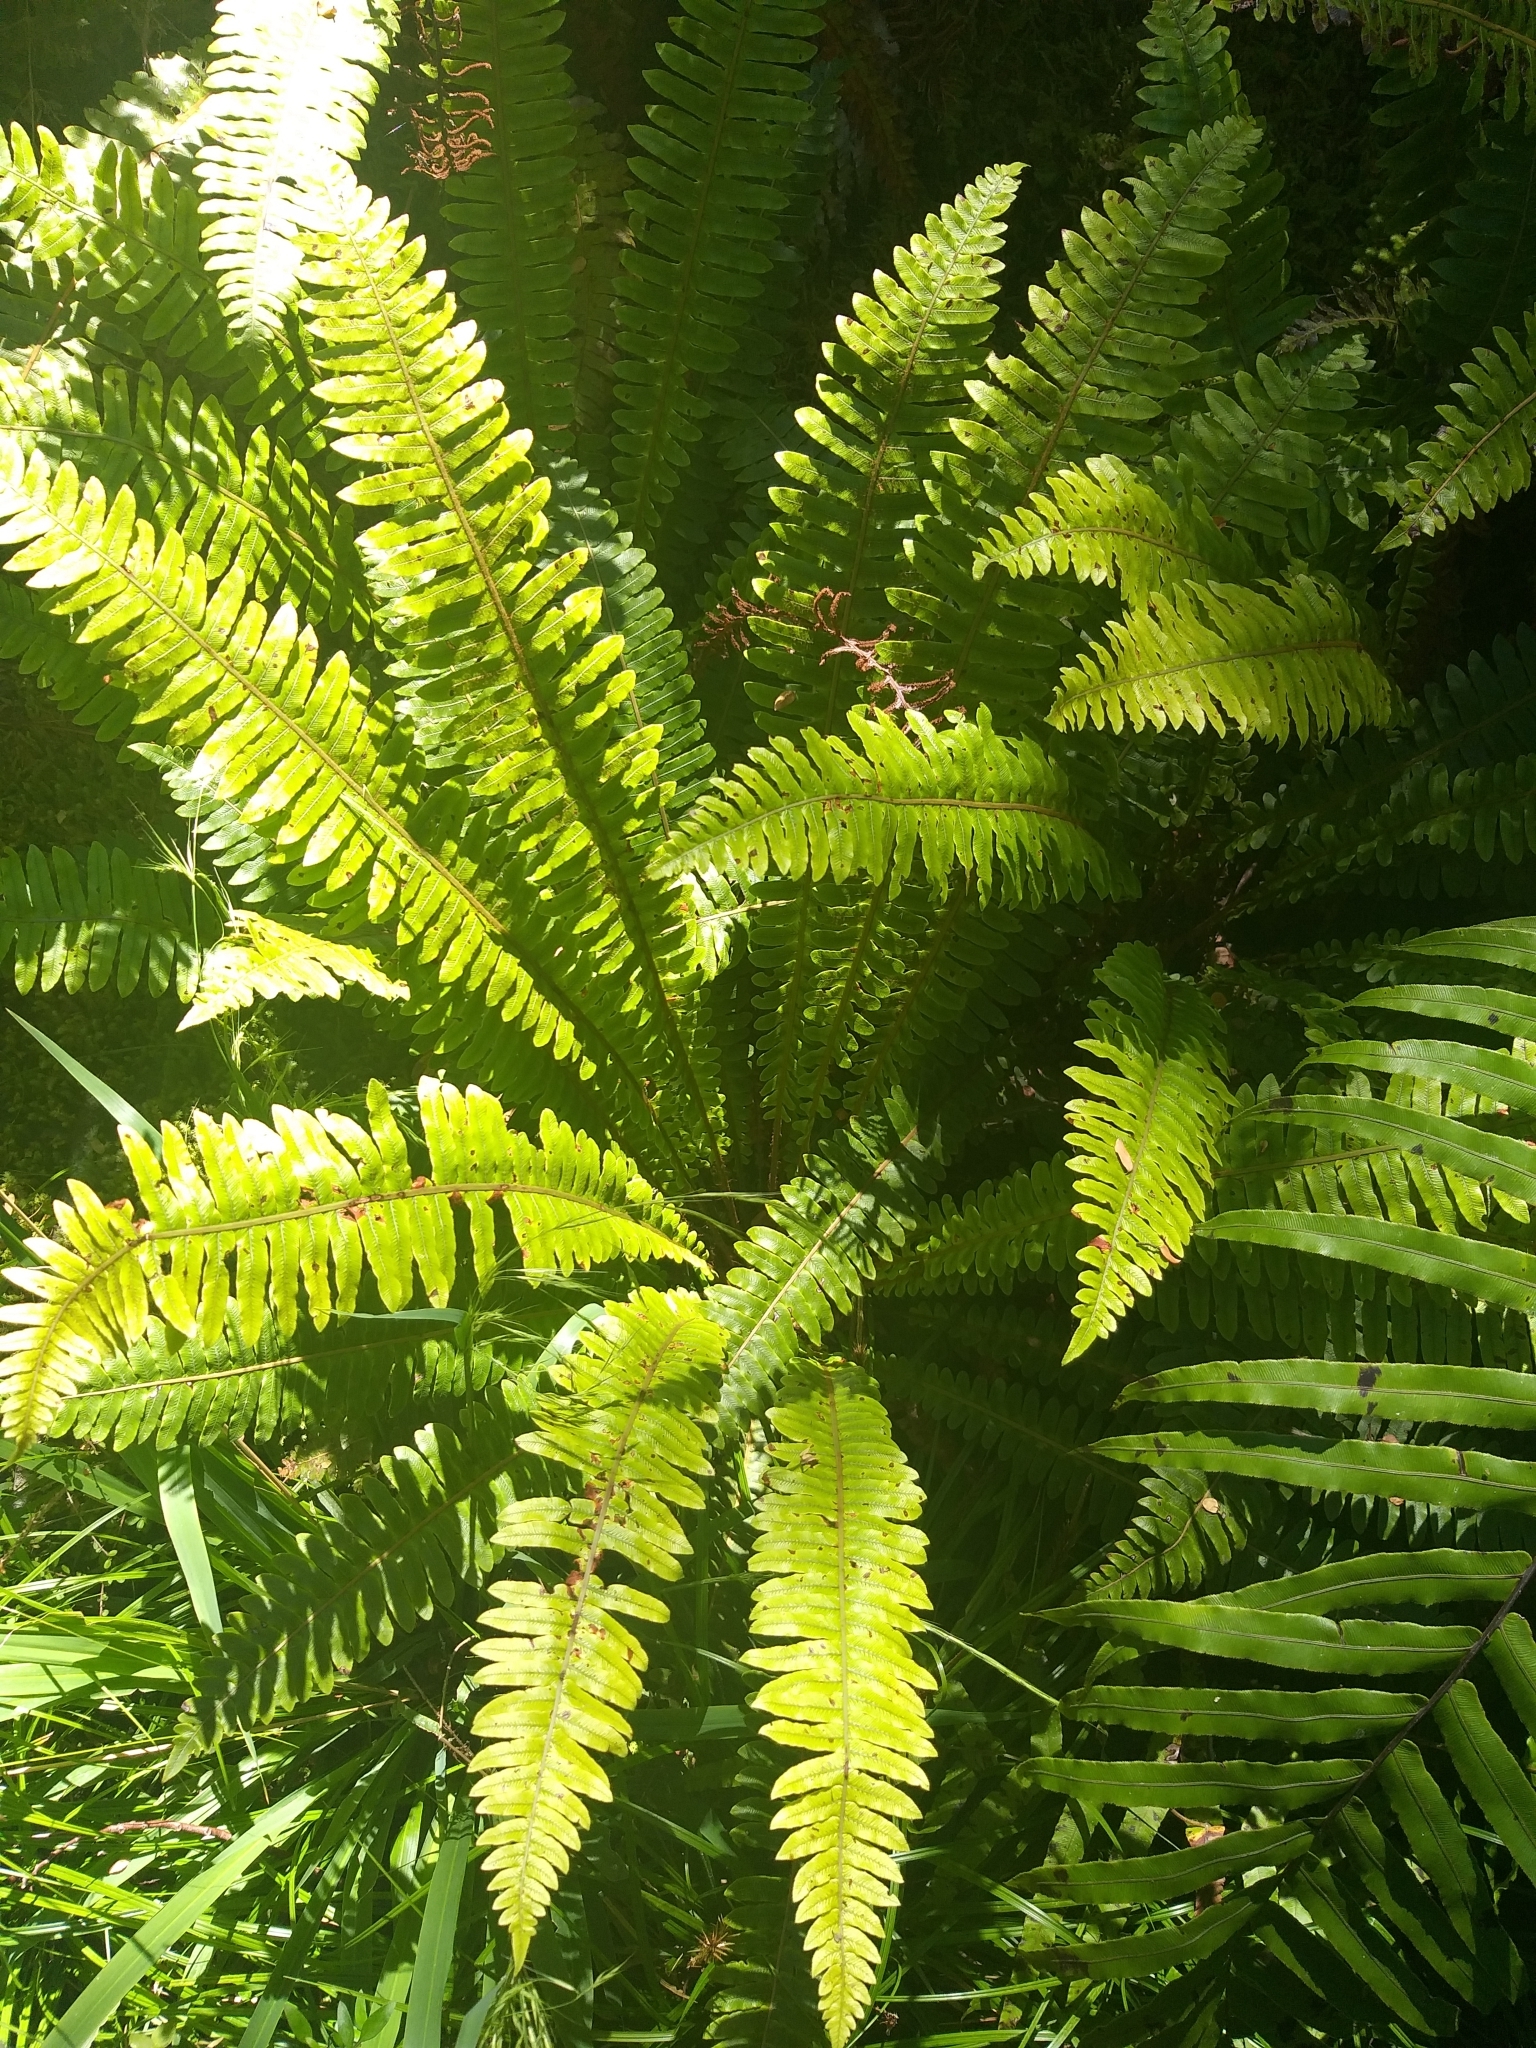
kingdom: Plantae
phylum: Tracheophyta
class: Polypodiopsida
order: Polypodiales
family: Blechnaceae
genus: Lomaria
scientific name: Lomaria discolor
